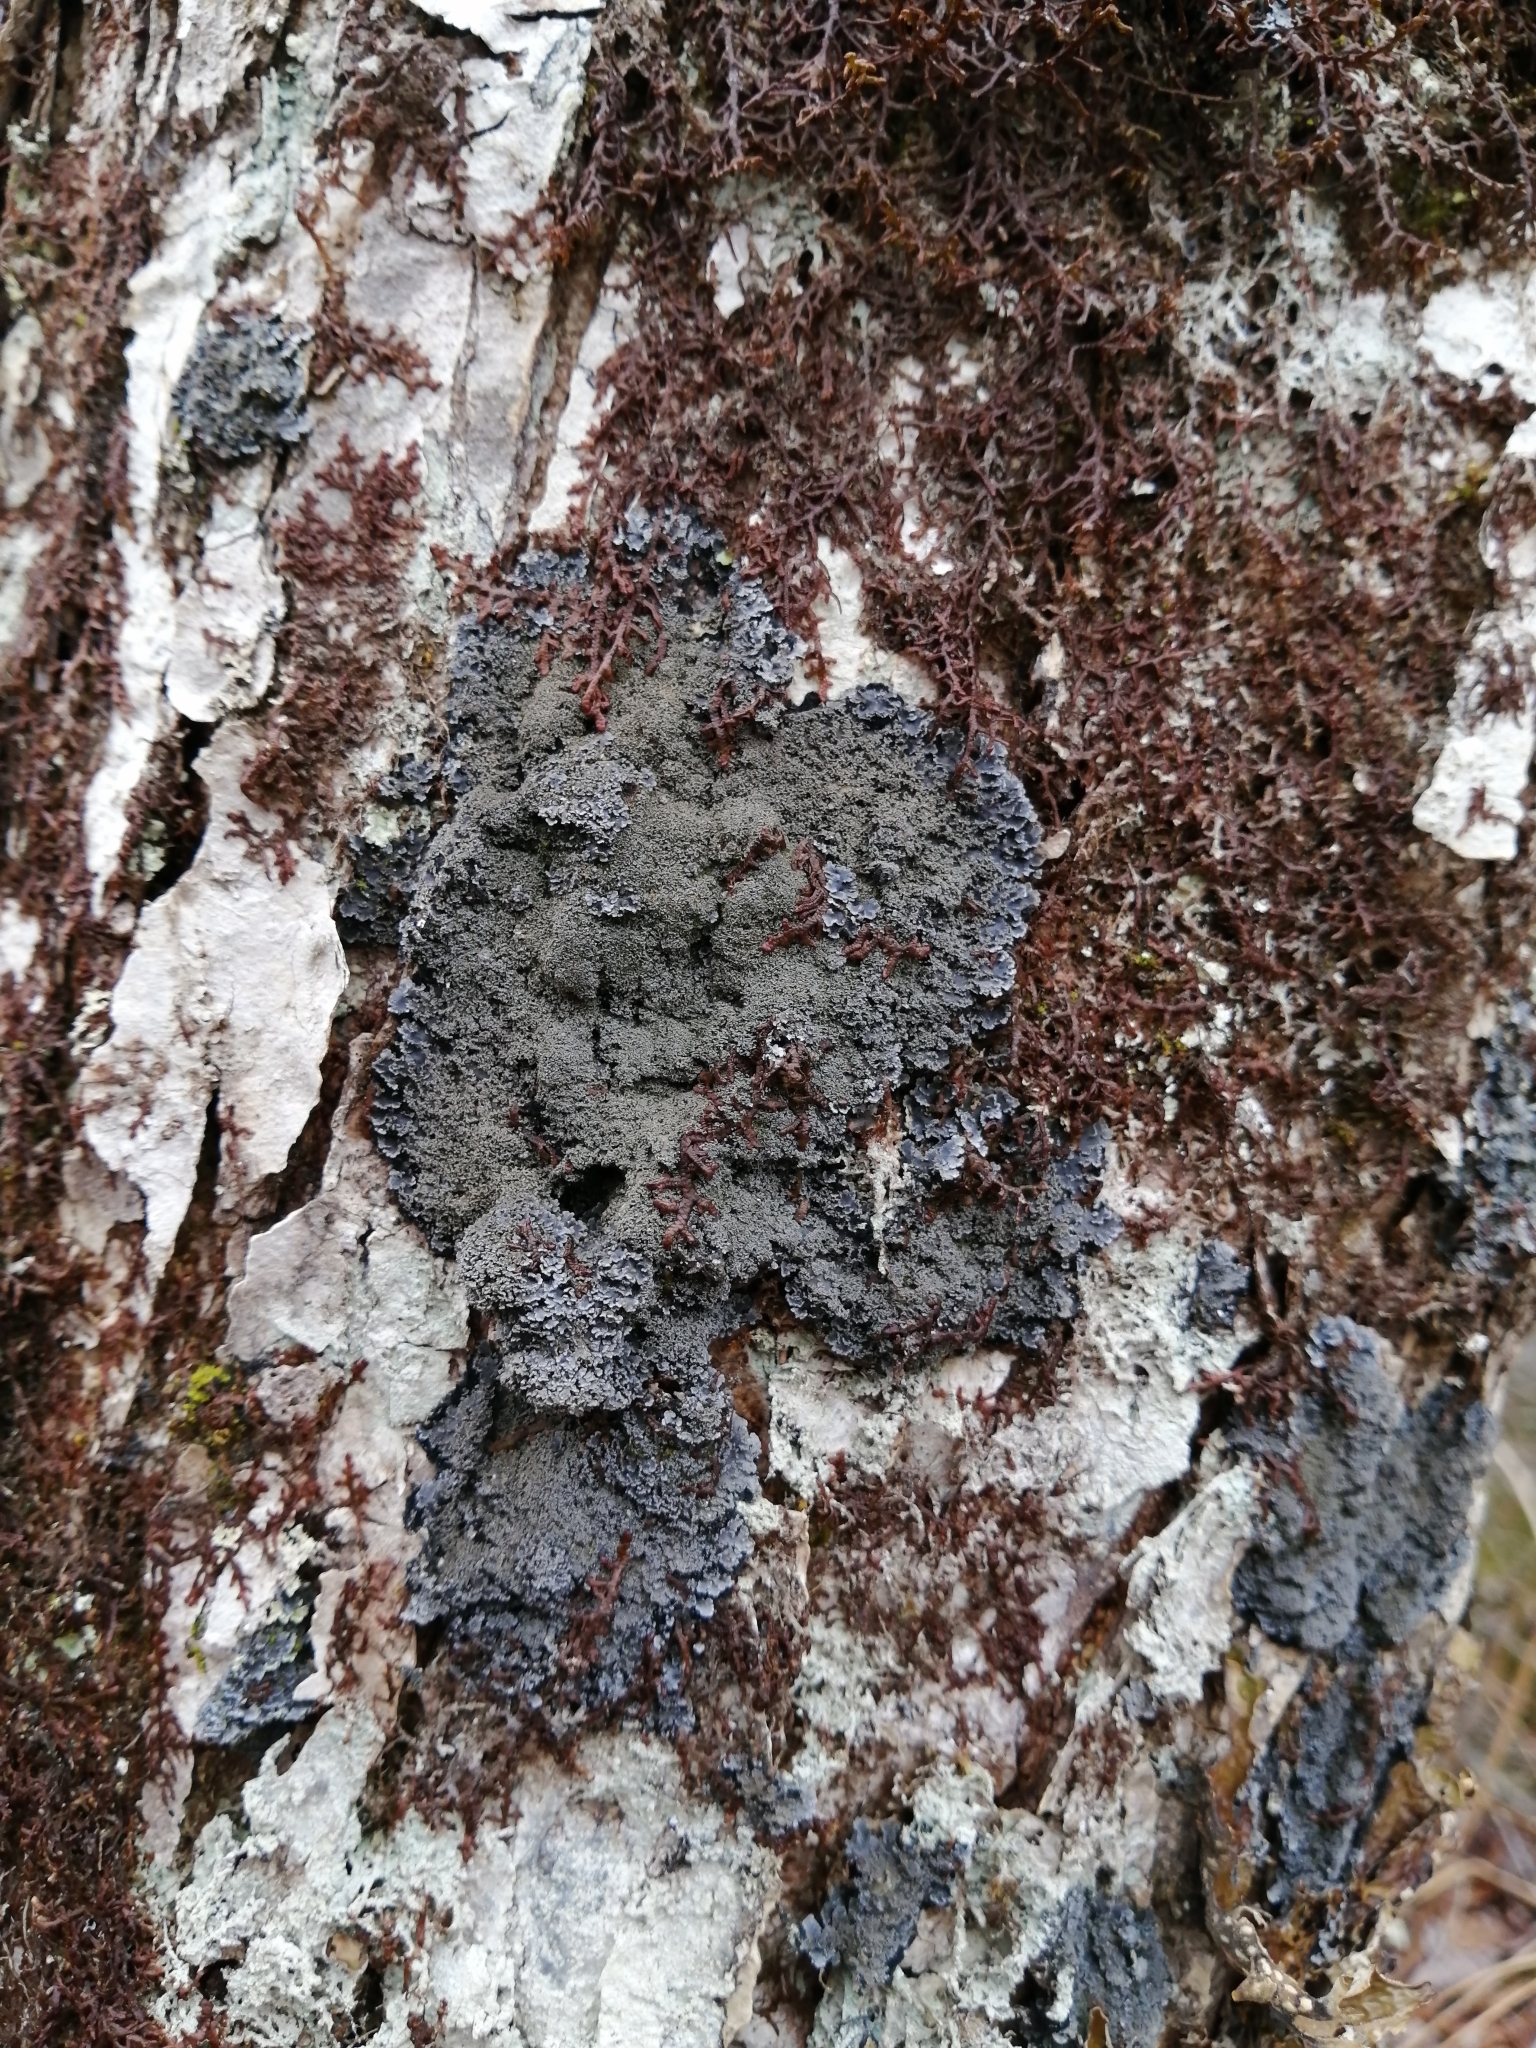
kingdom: Fungi
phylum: Ascomycota
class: Lecanoromycetes
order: Peltigerales
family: Pannariaceae
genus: Pannaria
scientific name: Pannaria conoplea
